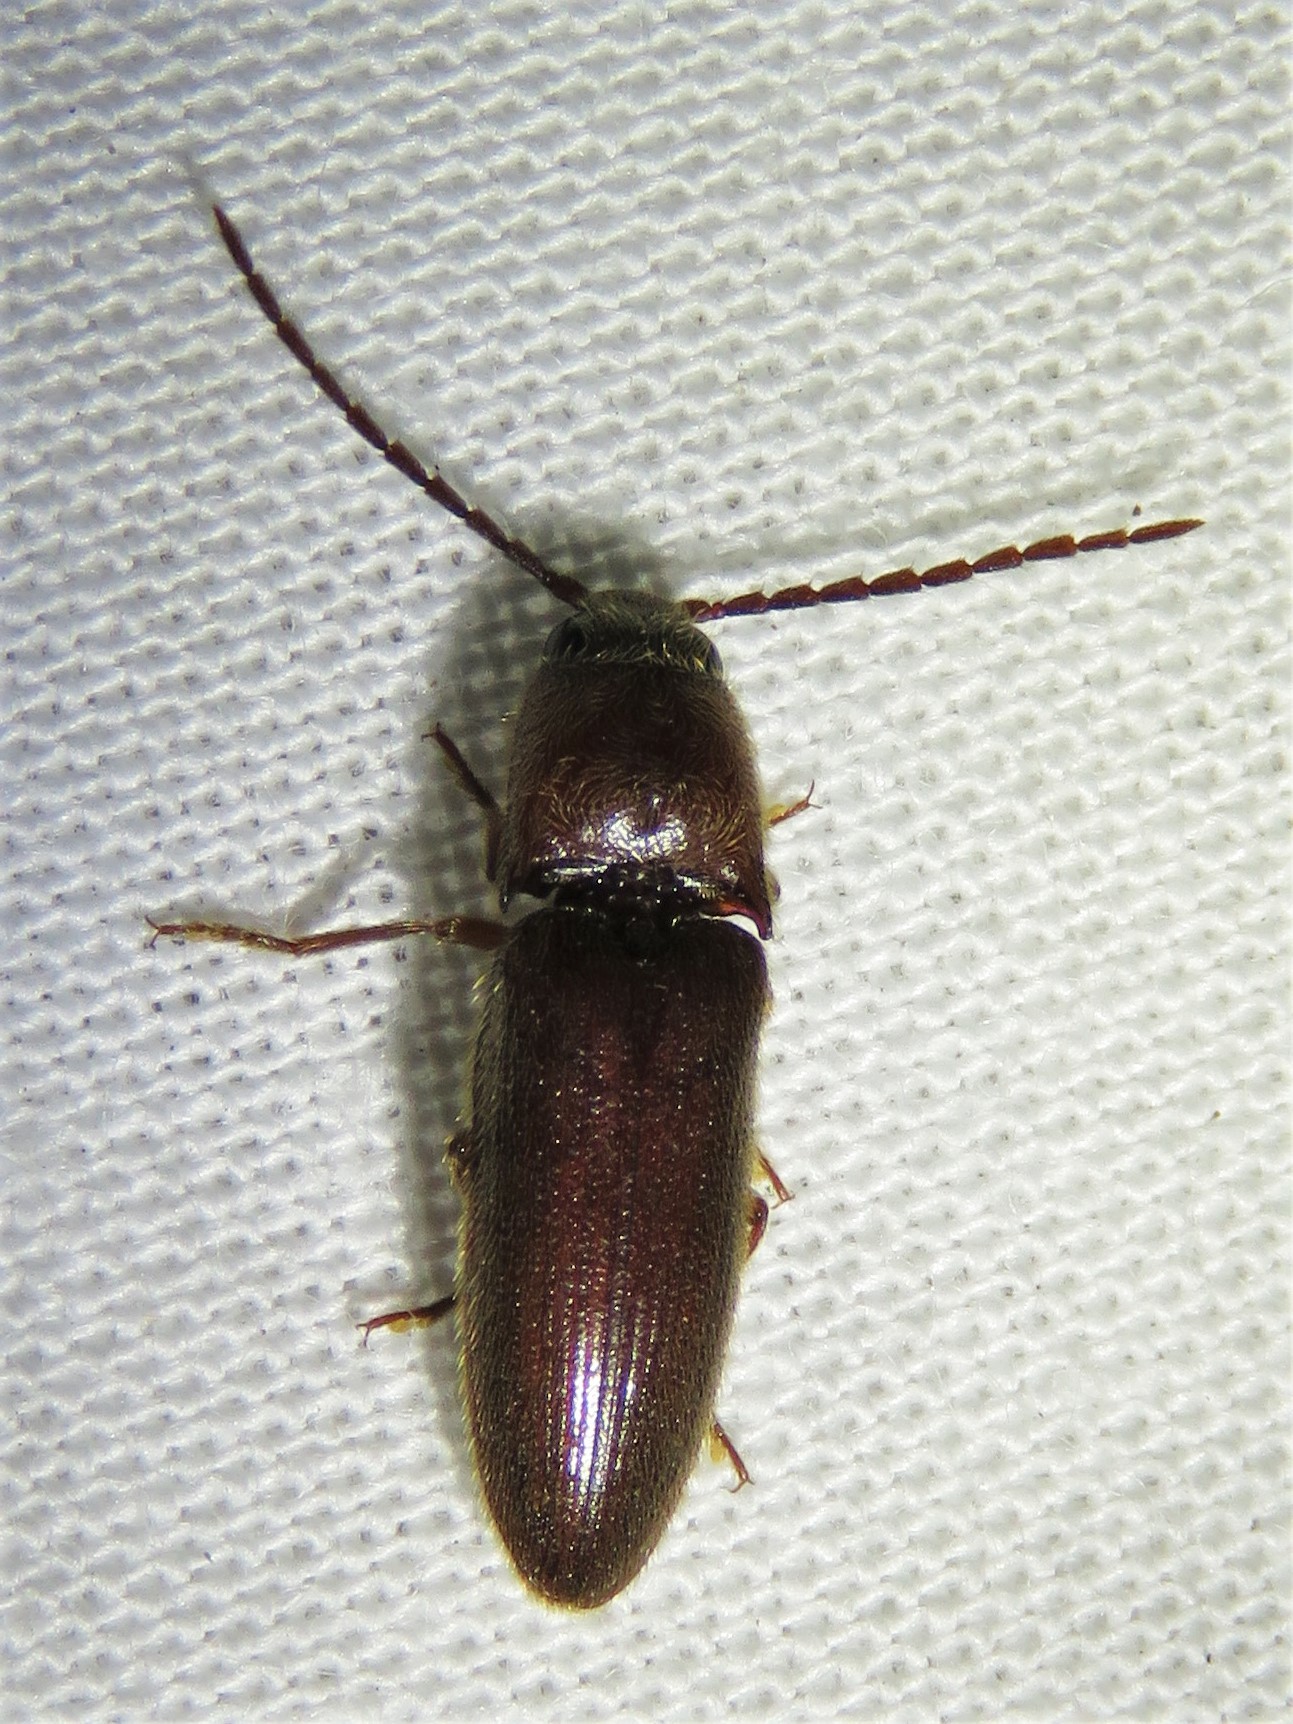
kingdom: Animalia
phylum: Arthropoda
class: Insecta
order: Coleoptera
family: Elateridae
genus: Dipropus
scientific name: Dipropus
